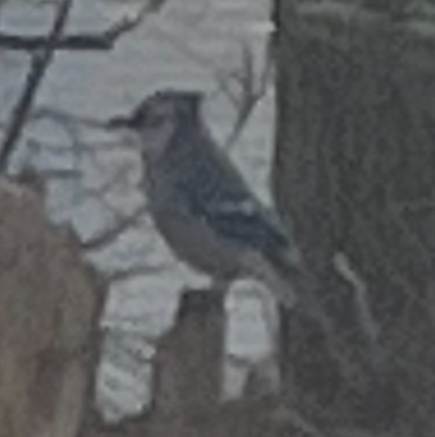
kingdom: Animalia
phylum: Chordata
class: Aves
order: Passeriformes
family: Corvidae
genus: Cyanocitta
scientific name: Cyanocitta cristata
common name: Blue jay
